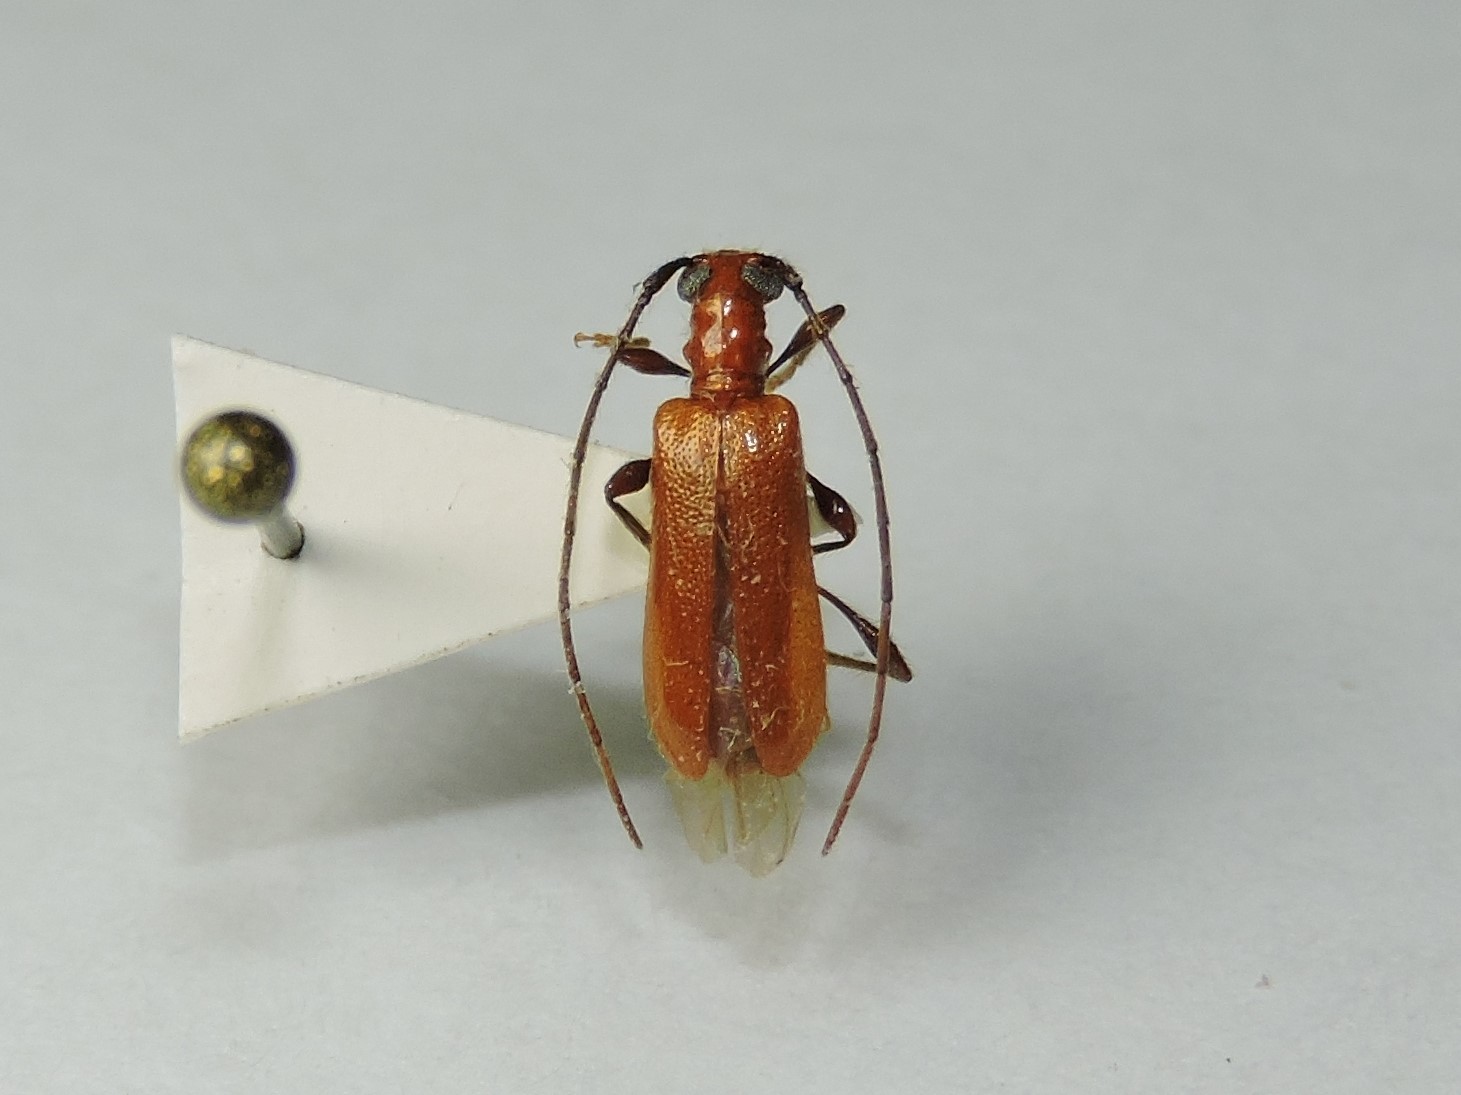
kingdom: Animalia
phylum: Arthropoda
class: Insecta
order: Coleoptera
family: Cerambycidae
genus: Obrium
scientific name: Obrium cantharinum
